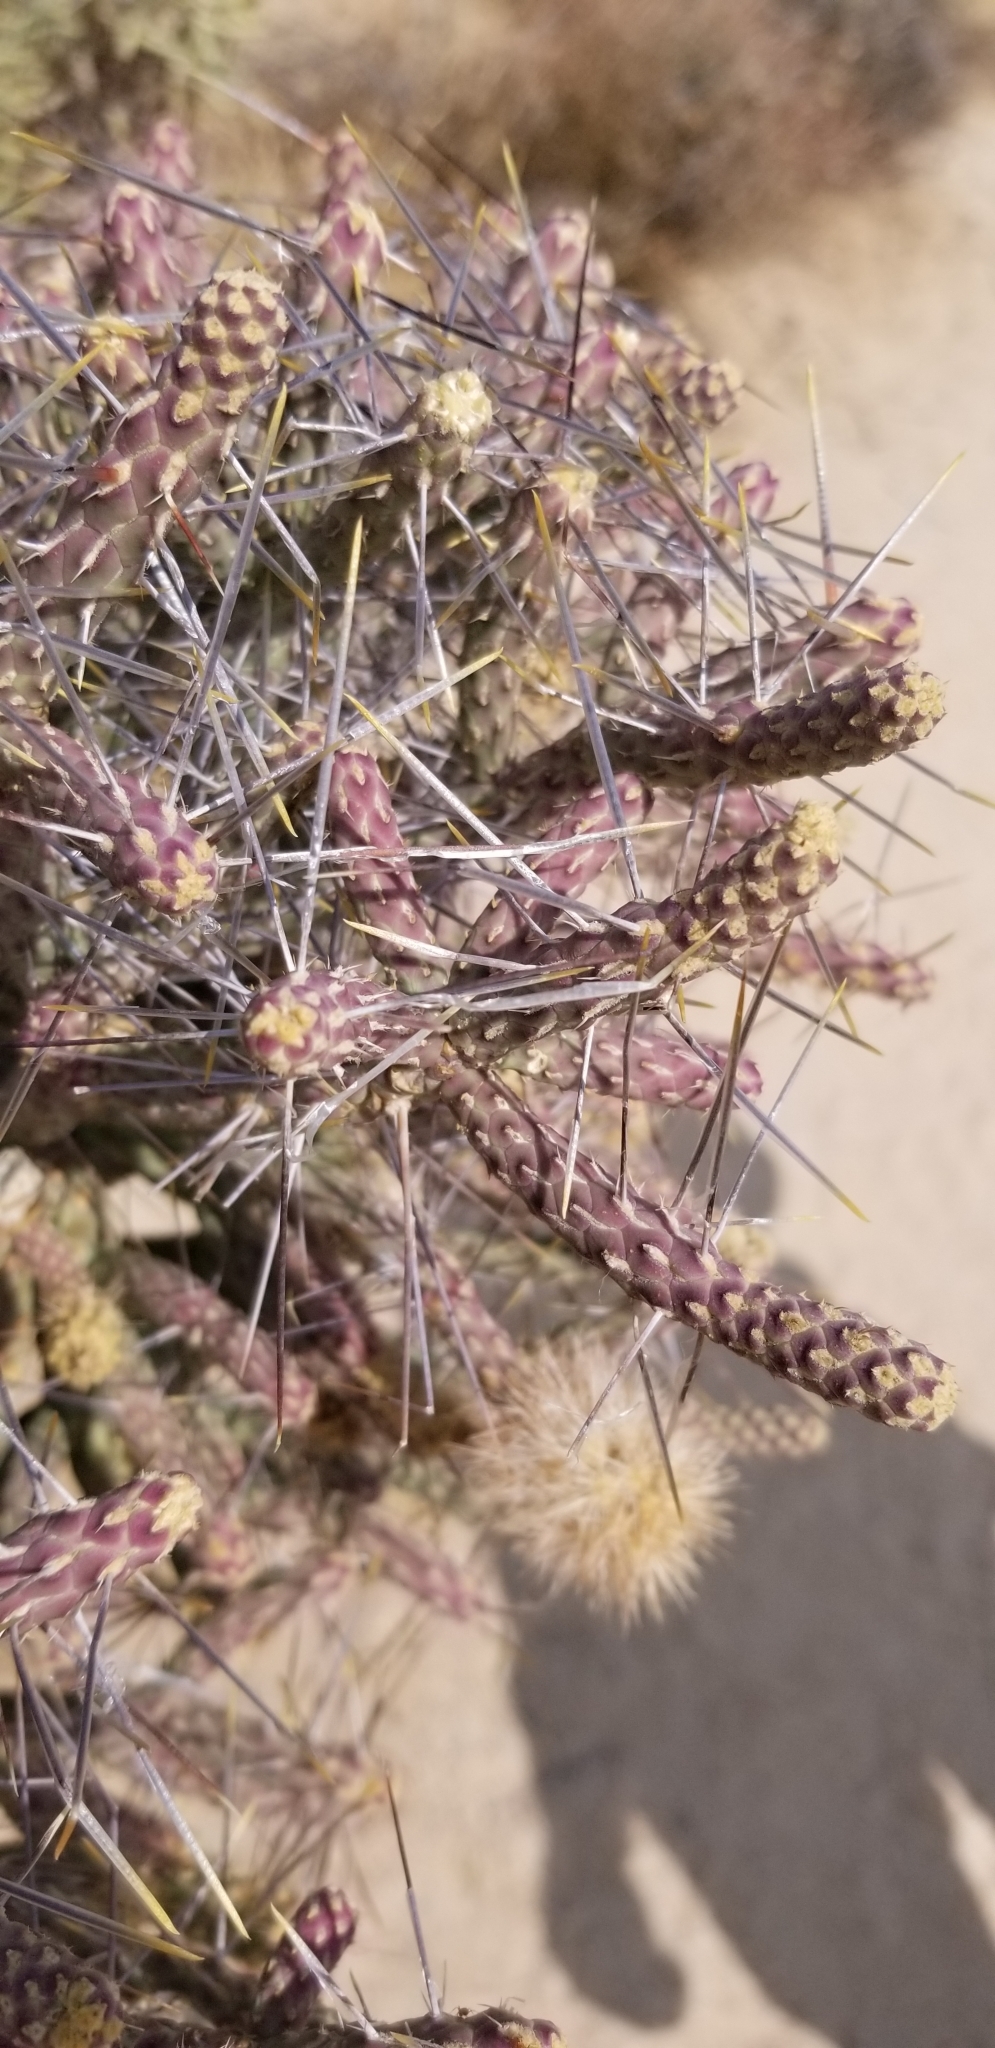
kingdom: Plantae
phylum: Tracheophyta
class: Magnoliopsida
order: Caryophyllales
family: Cactaceae
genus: Cylindropuntia
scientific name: Cylindropuntia ramosissima
